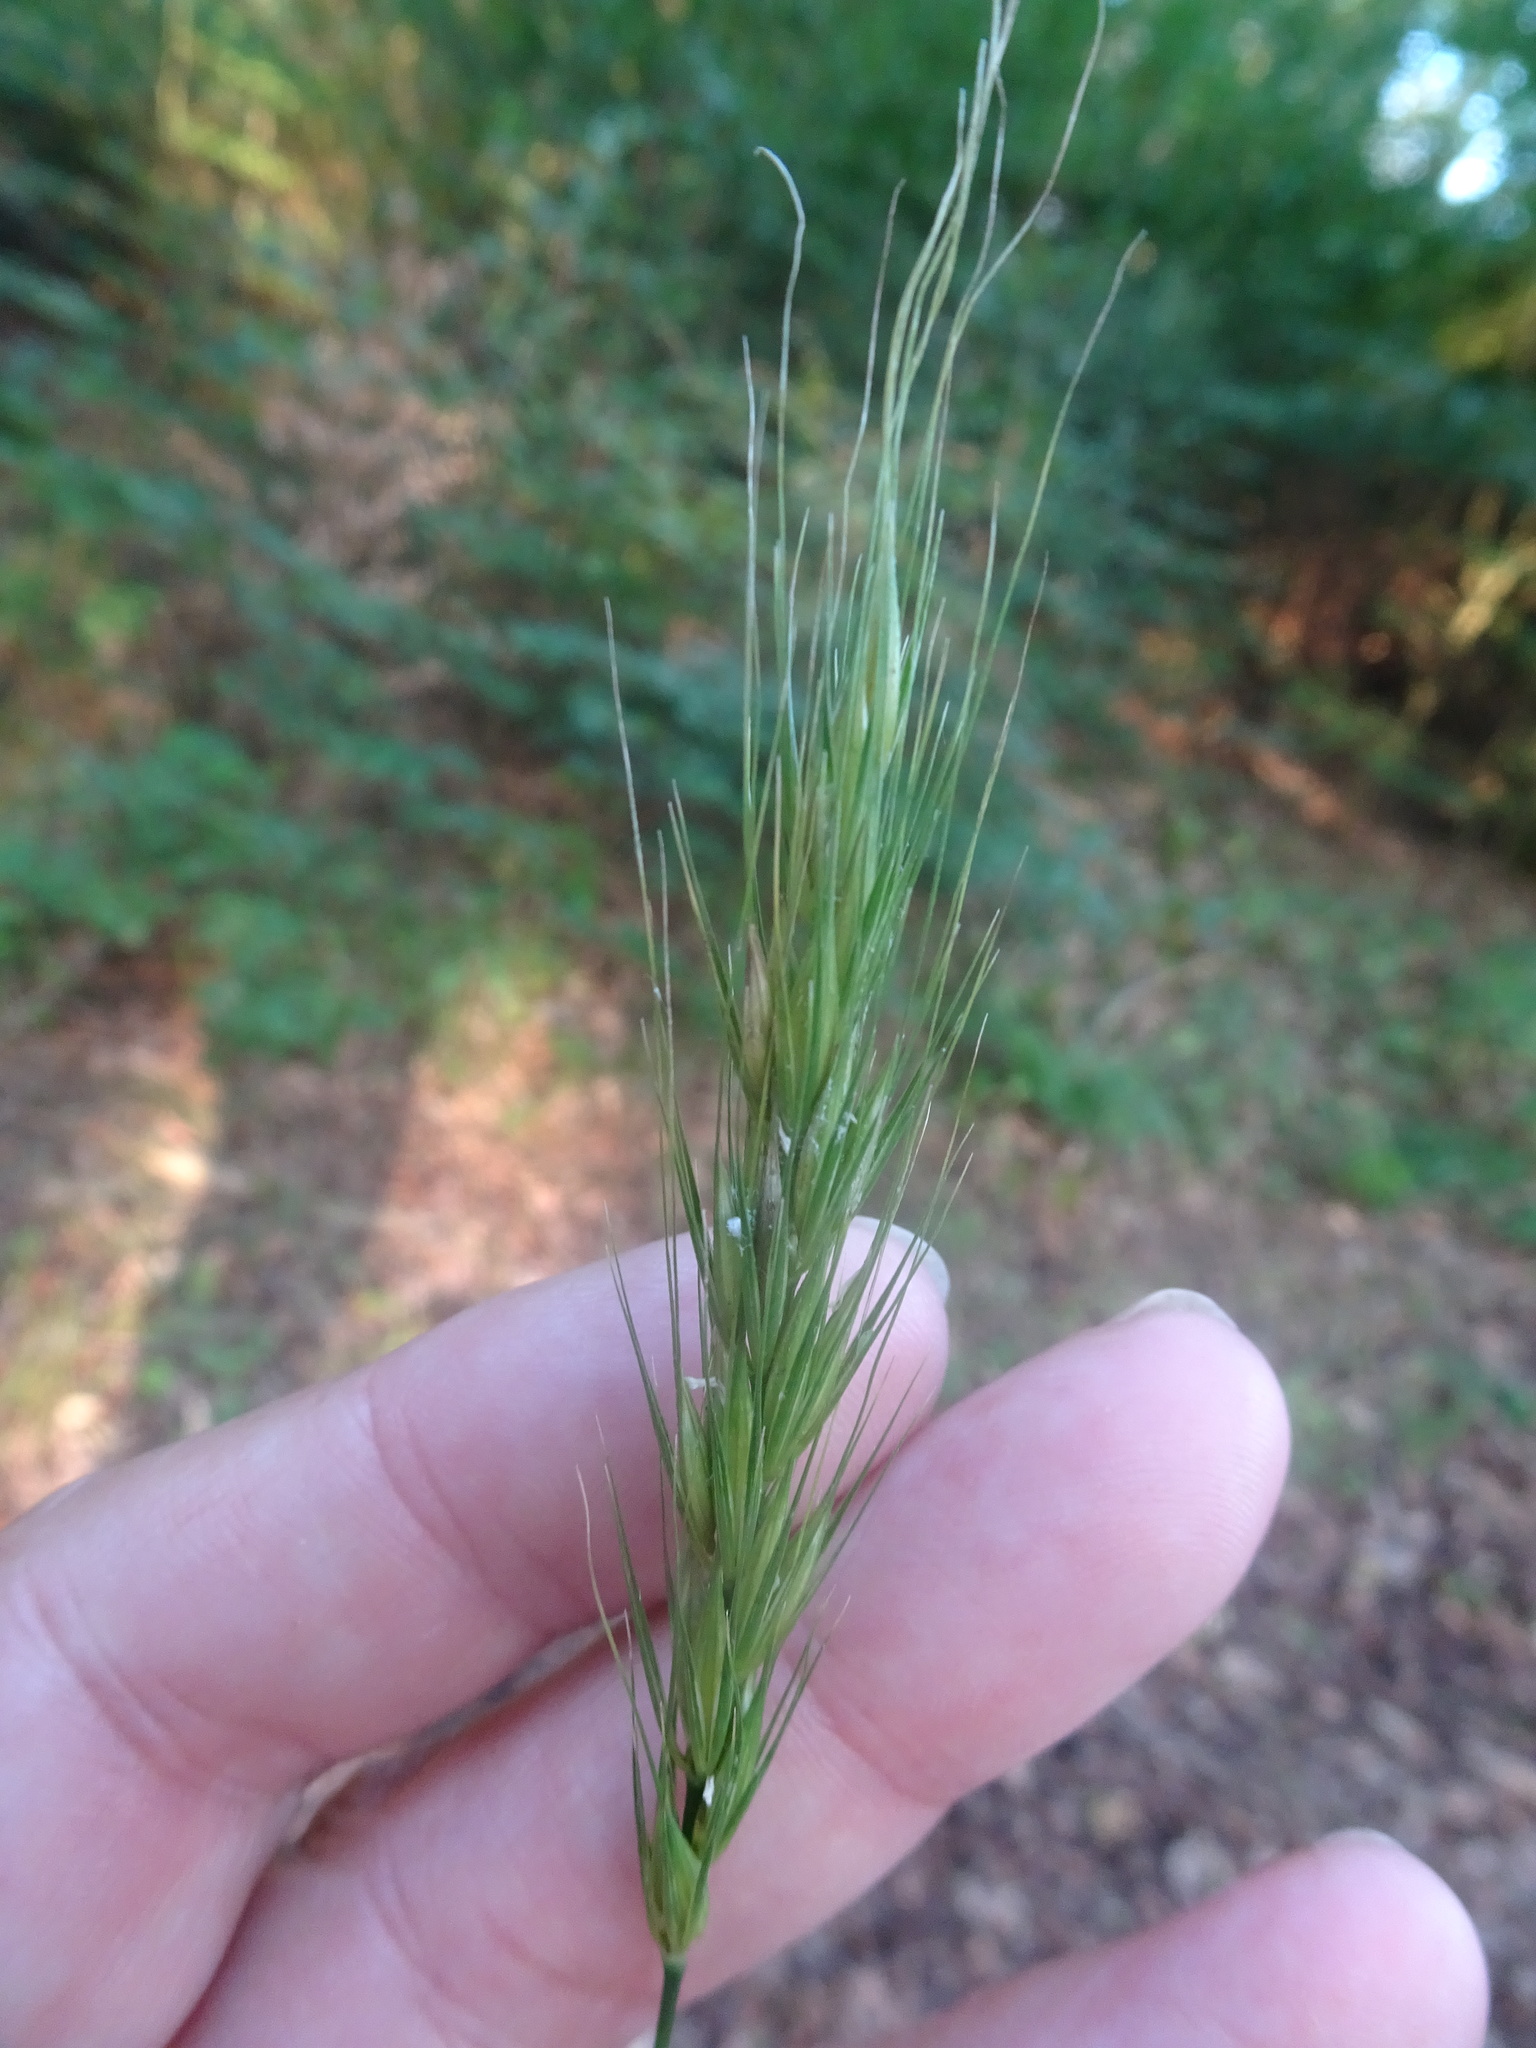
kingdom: Plantae
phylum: Tracheophyta
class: Liliopsida
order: Poales
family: Poaceae
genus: Hordelymus
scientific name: Hordelymus europaeus
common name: Wood-barley
